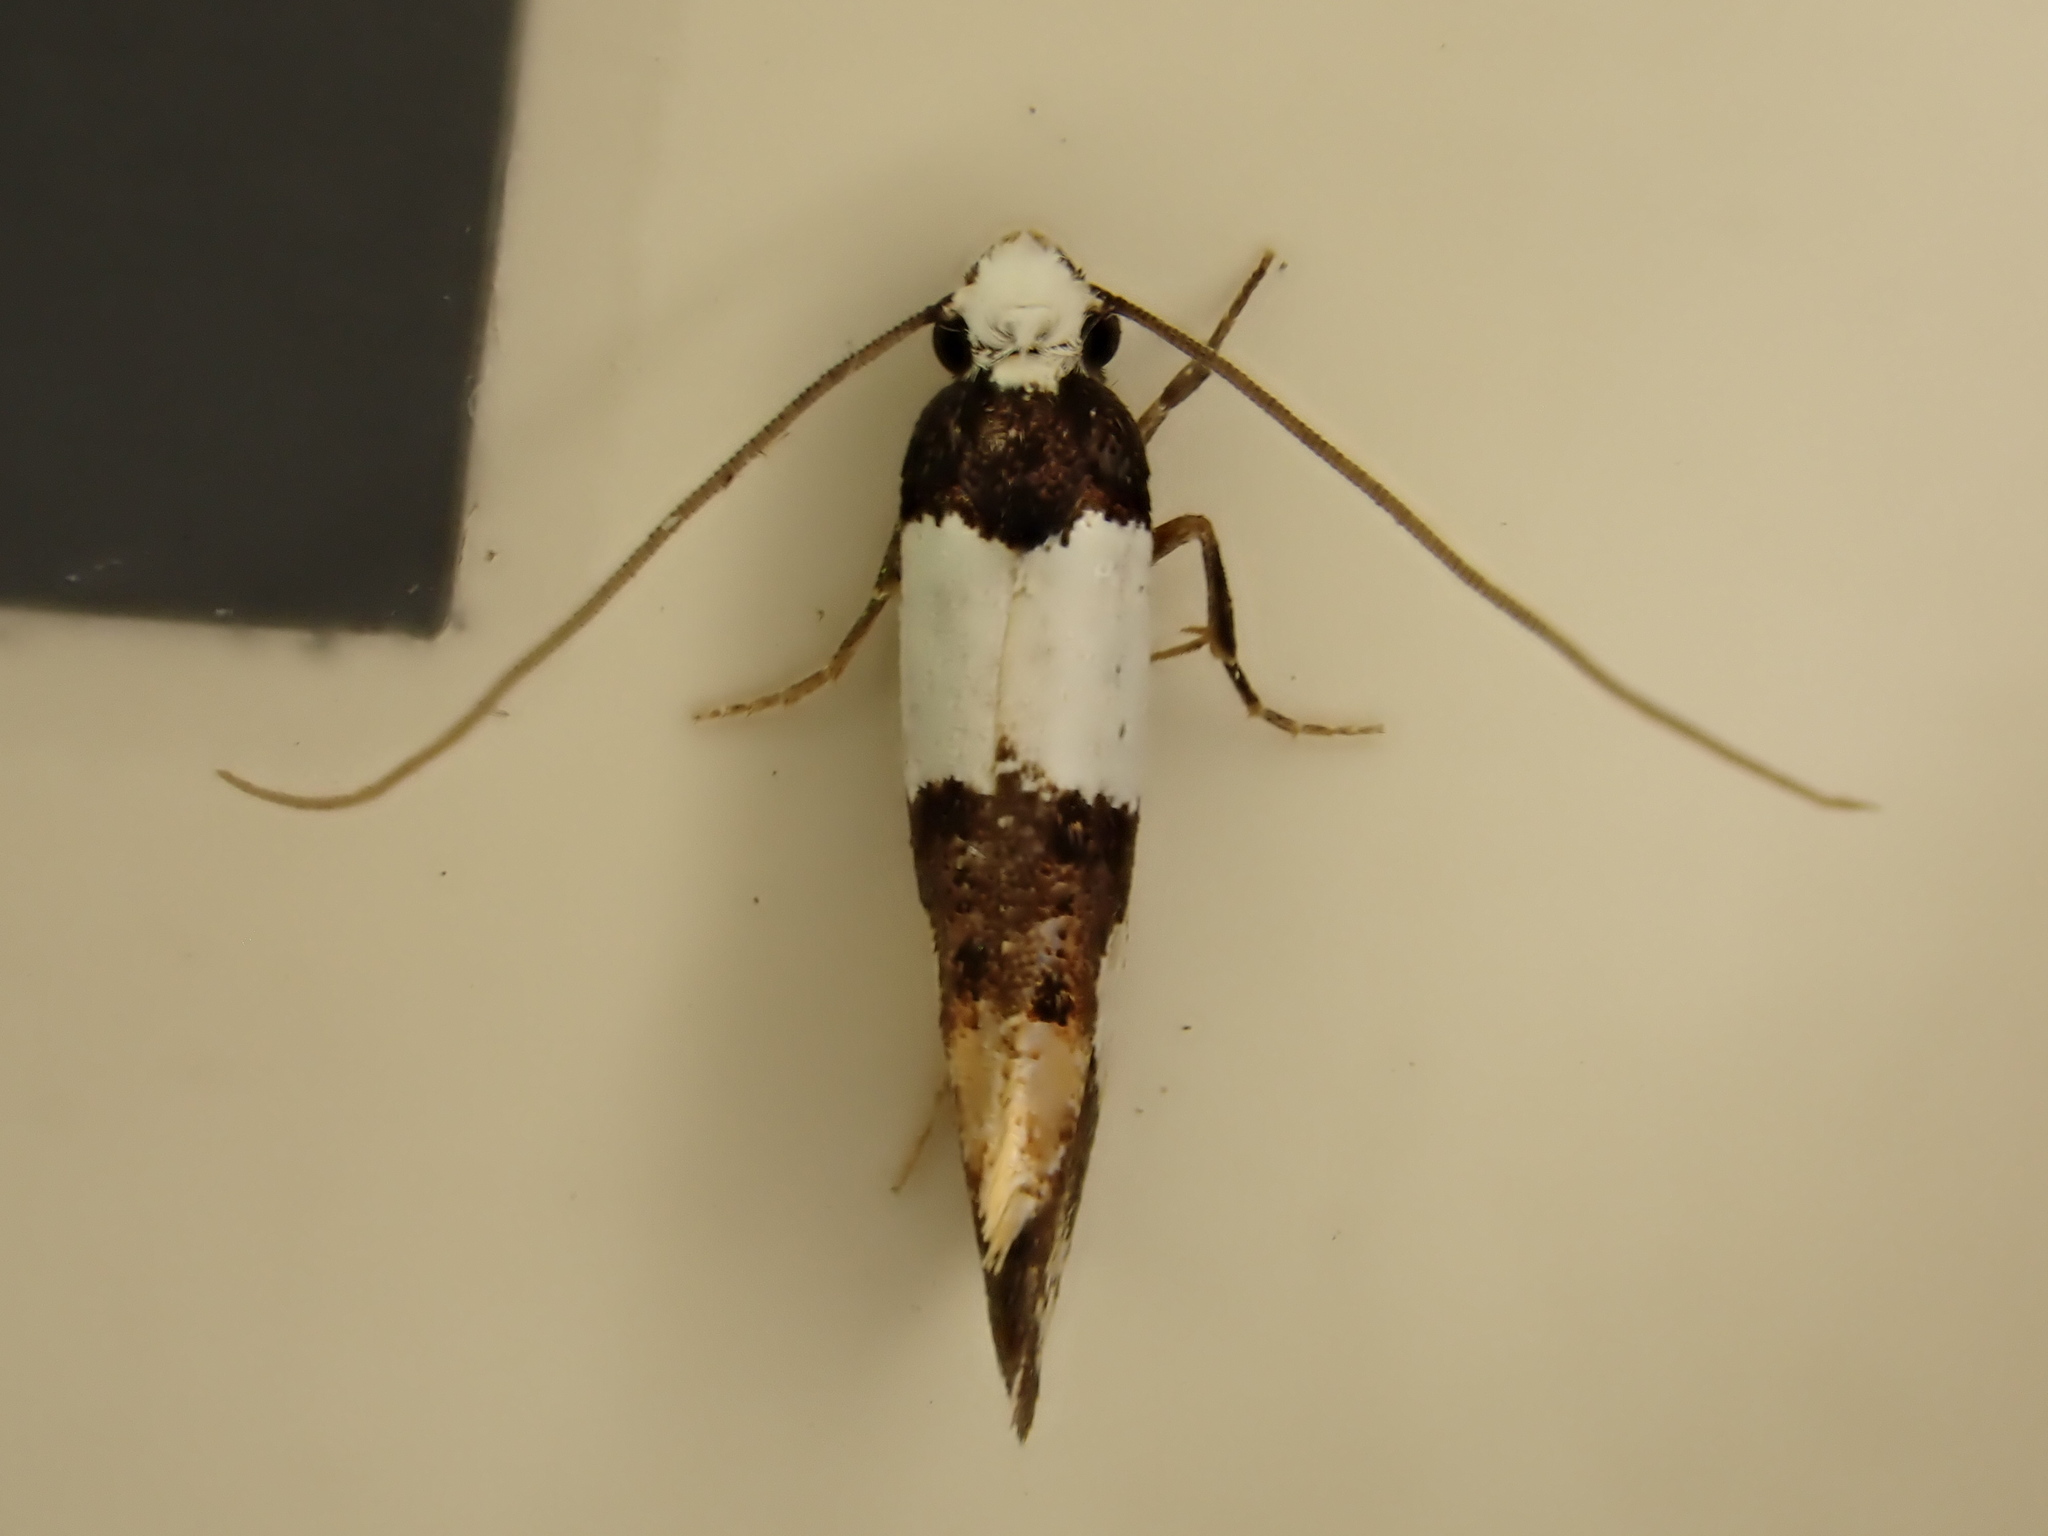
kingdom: Animalia
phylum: Arthropoda
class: Insecta
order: Lepidoptera
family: Tineidae
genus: Monopis
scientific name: Monopis icterogastra
